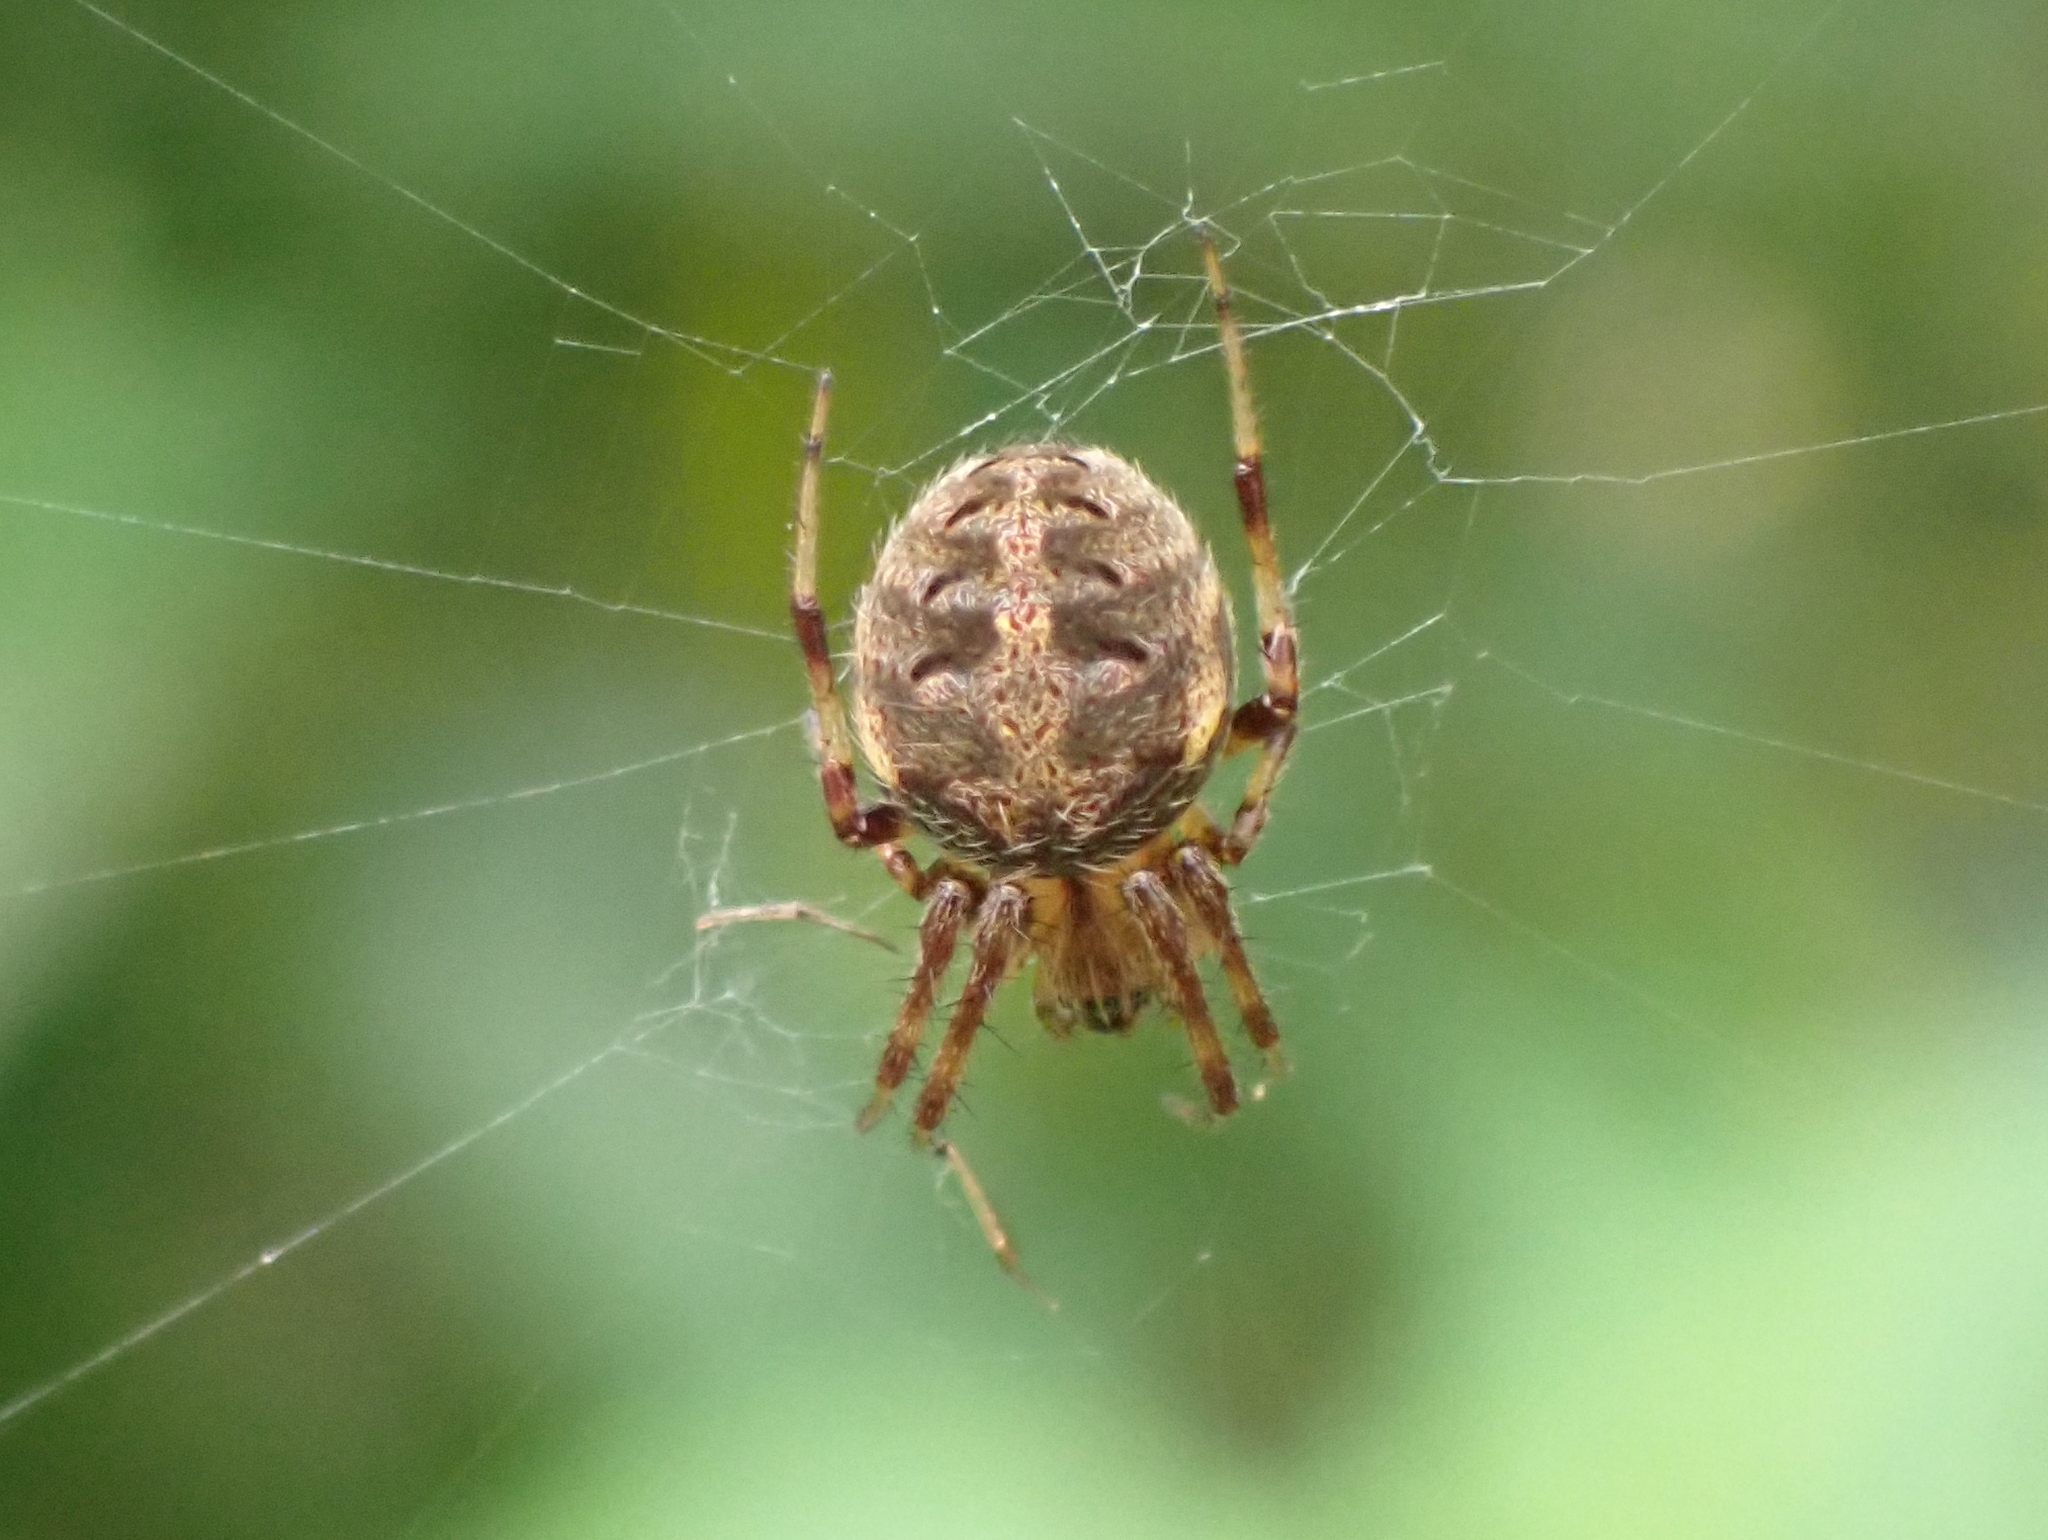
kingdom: Animalia
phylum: Arthropoda
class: Arachnida
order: Araneae
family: Araneidae
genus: Neoscona
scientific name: Neoscona arabesca
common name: Orb weavers
